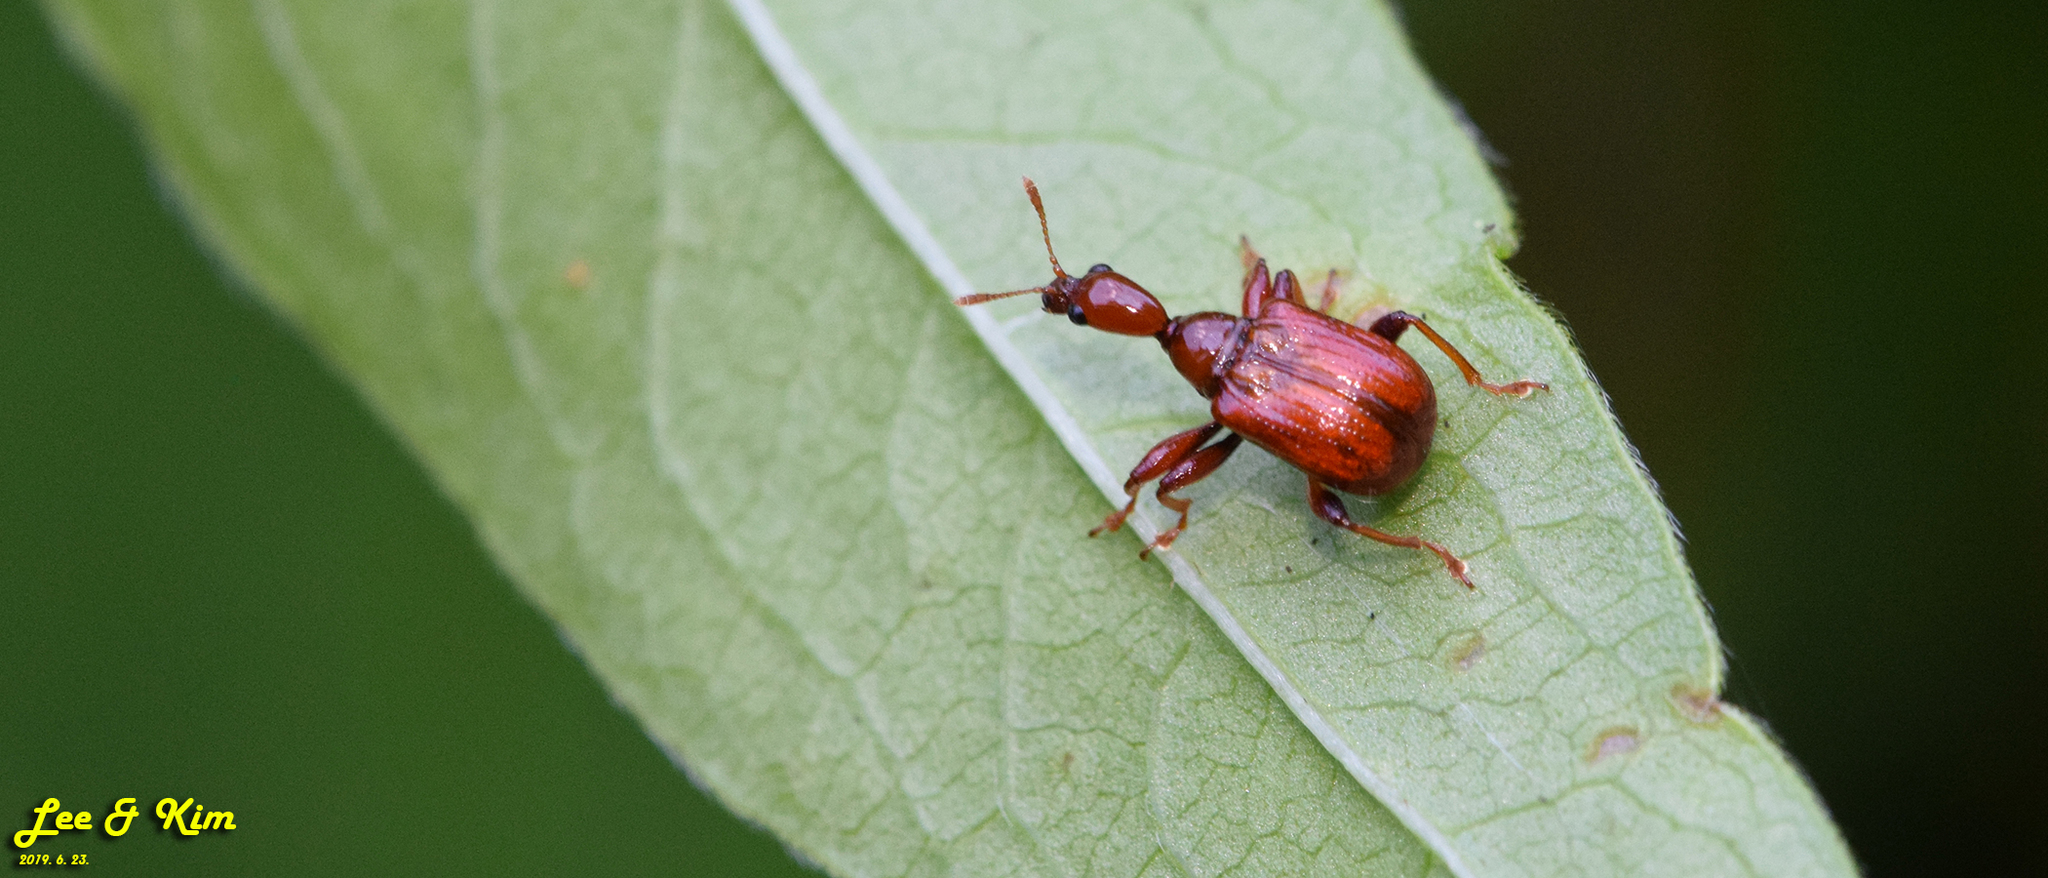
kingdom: Animalia
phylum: Arthropoda
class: Insecta
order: Coleoptera
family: Attelabidae
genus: Leptapoderus
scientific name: Leptapoderus rubidus
